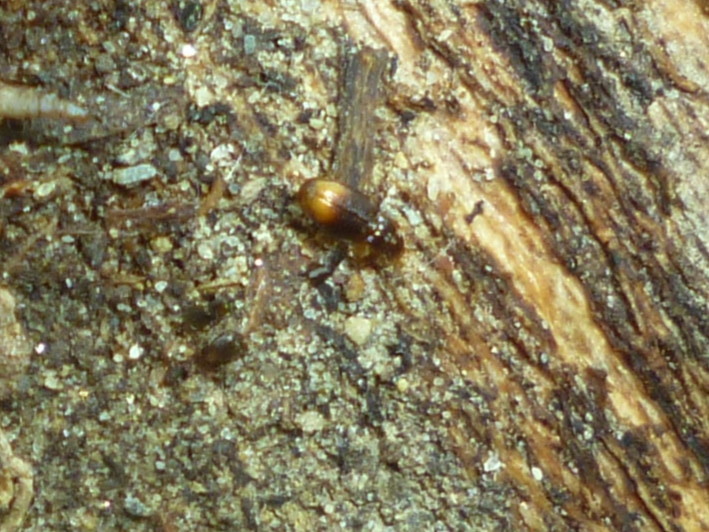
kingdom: Animalia
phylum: Arthropoda
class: Insecta
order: Coleoptera
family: Carabidae
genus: Mioptachys
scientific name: Mioptachys flavicauda
